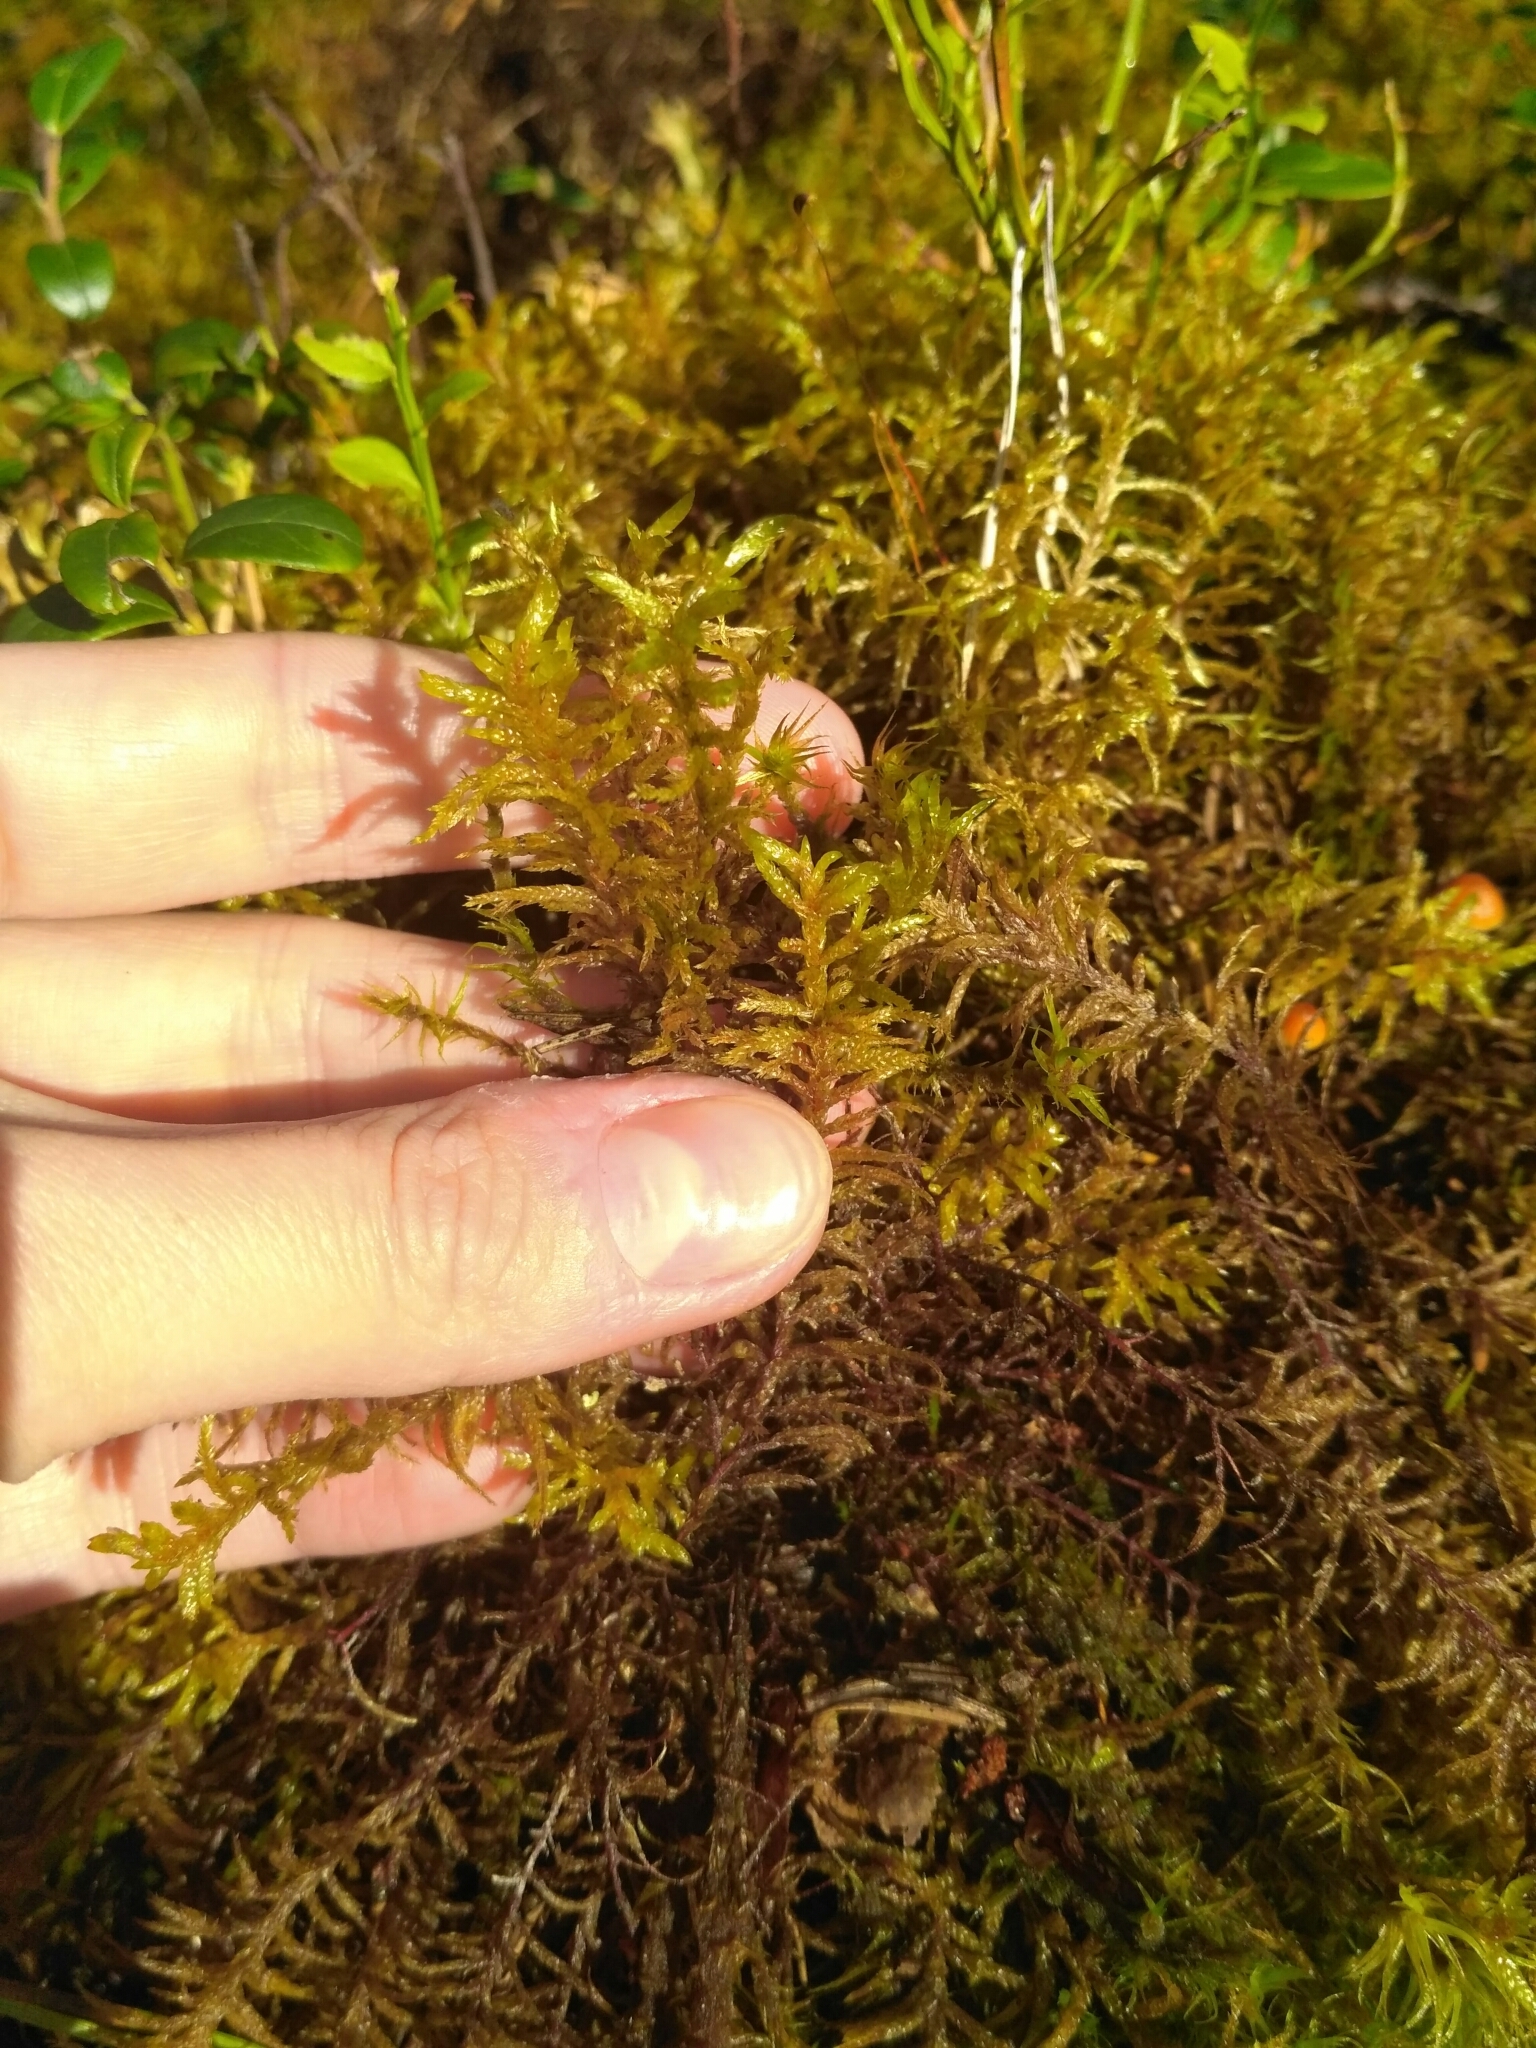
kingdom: Plantae
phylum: Bryophyta
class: Bryopsida
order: Hypnales
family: Hylocomiaceae
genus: Pleurozium
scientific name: Pleurozium schreberi
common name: Red-stemmed feather moss
